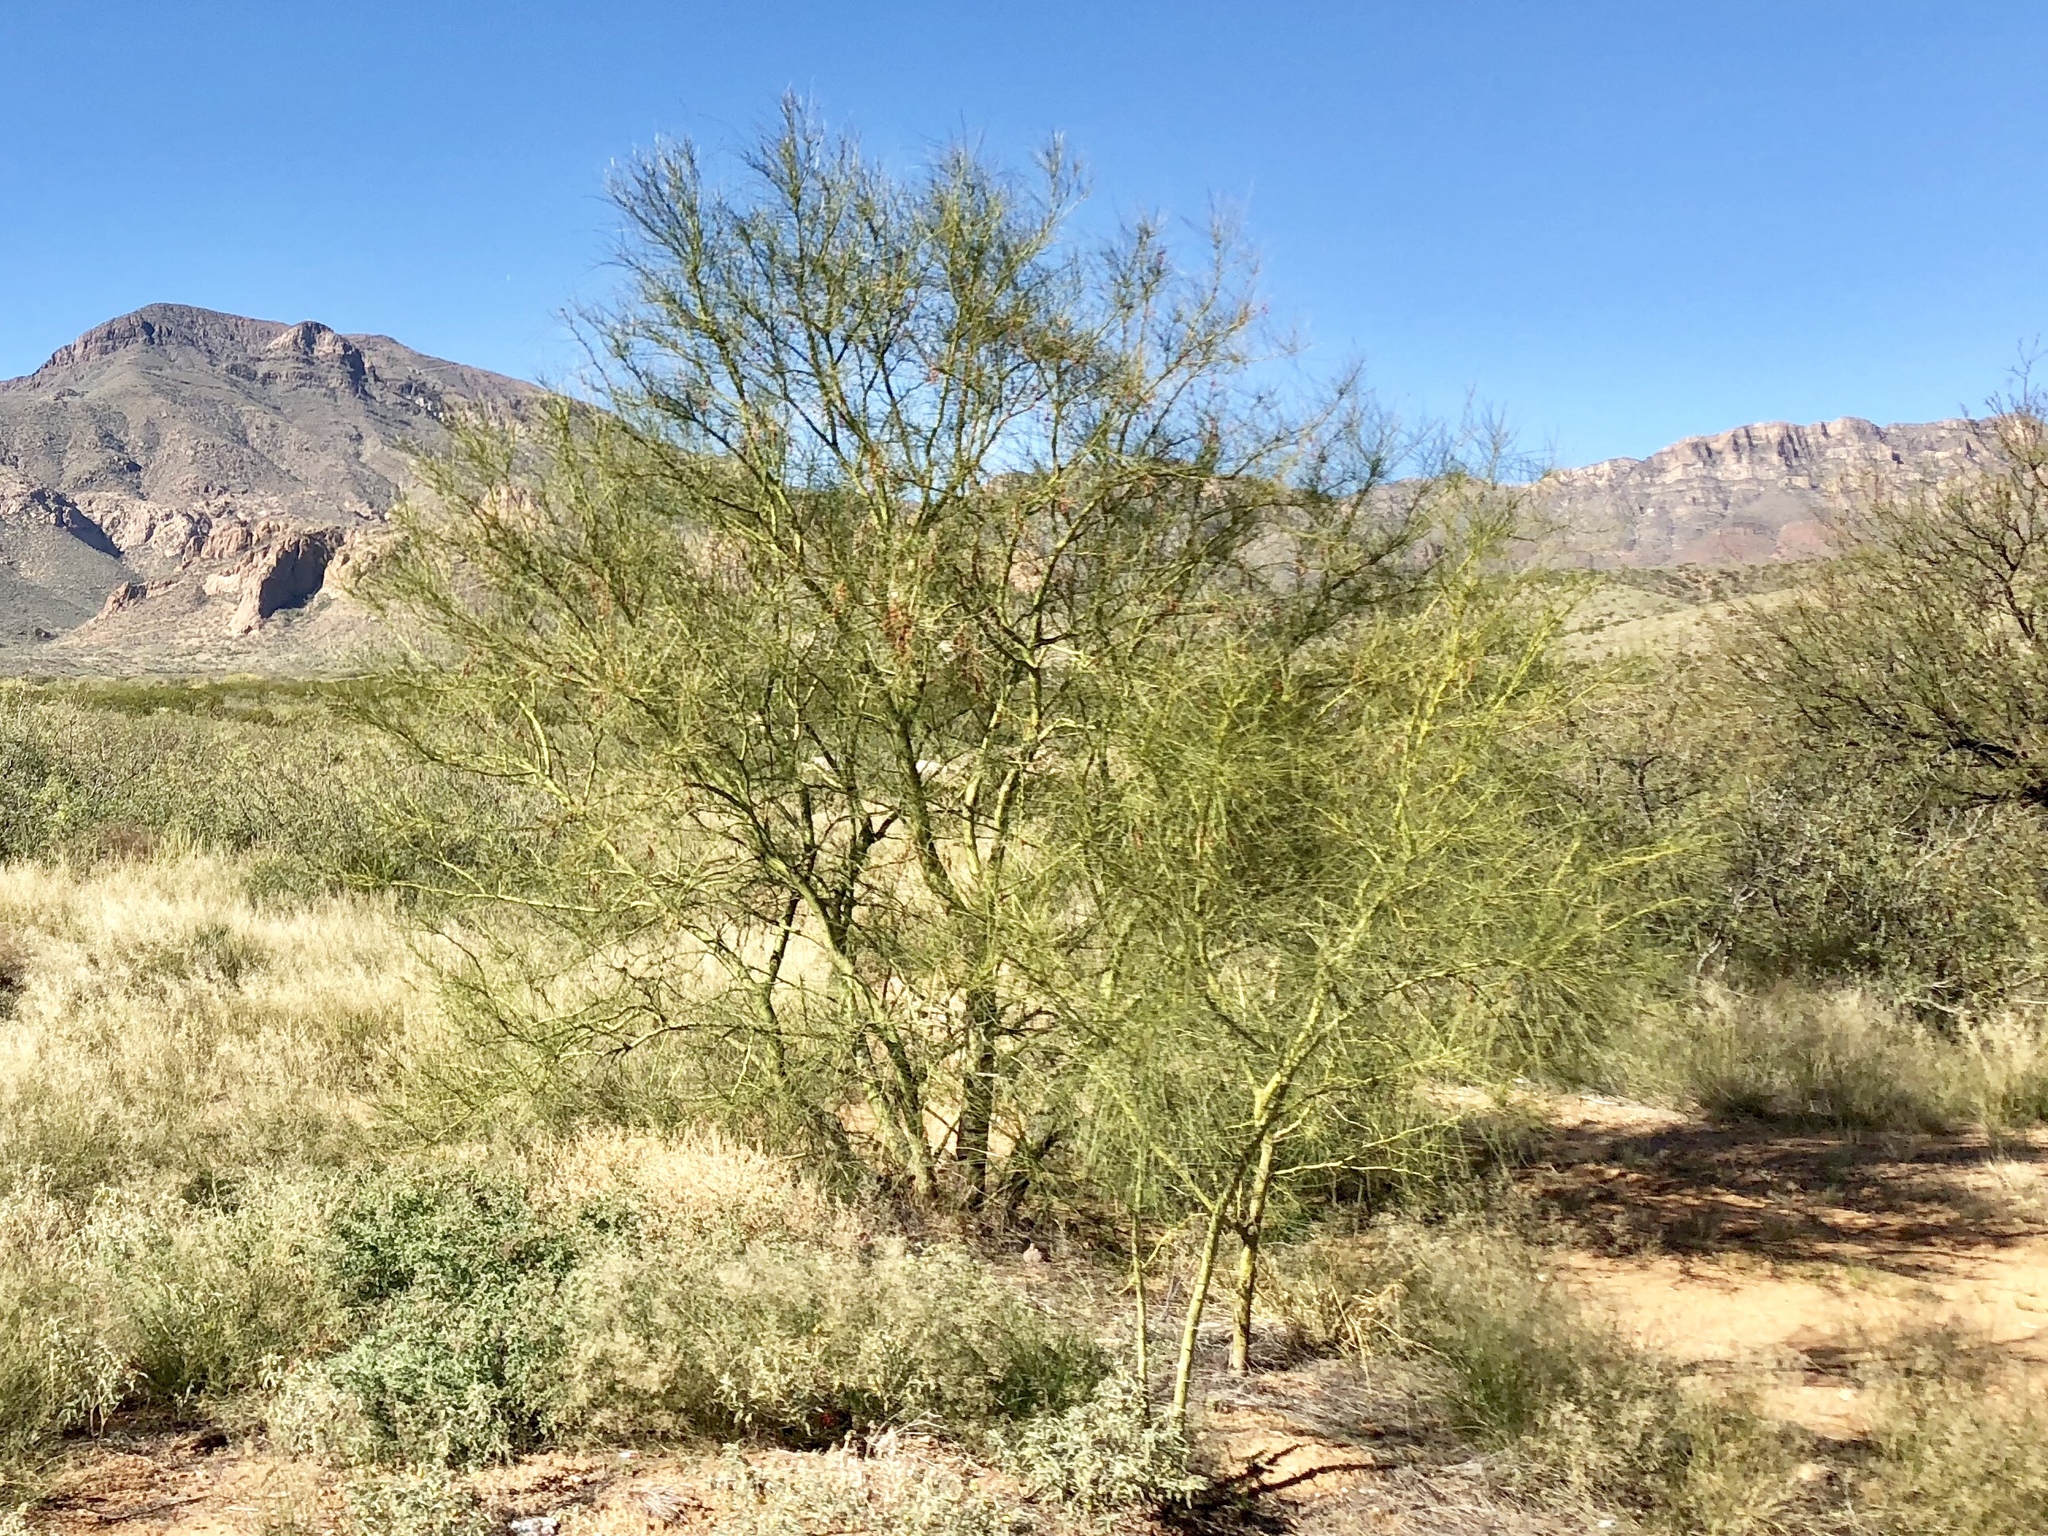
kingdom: Plantae
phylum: Tracheophyta
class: Magnoliopsida
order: Fabales
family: Fabaceae
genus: Parkinsonia
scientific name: Parkinsonia aculeata
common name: Jerusalem thorn
